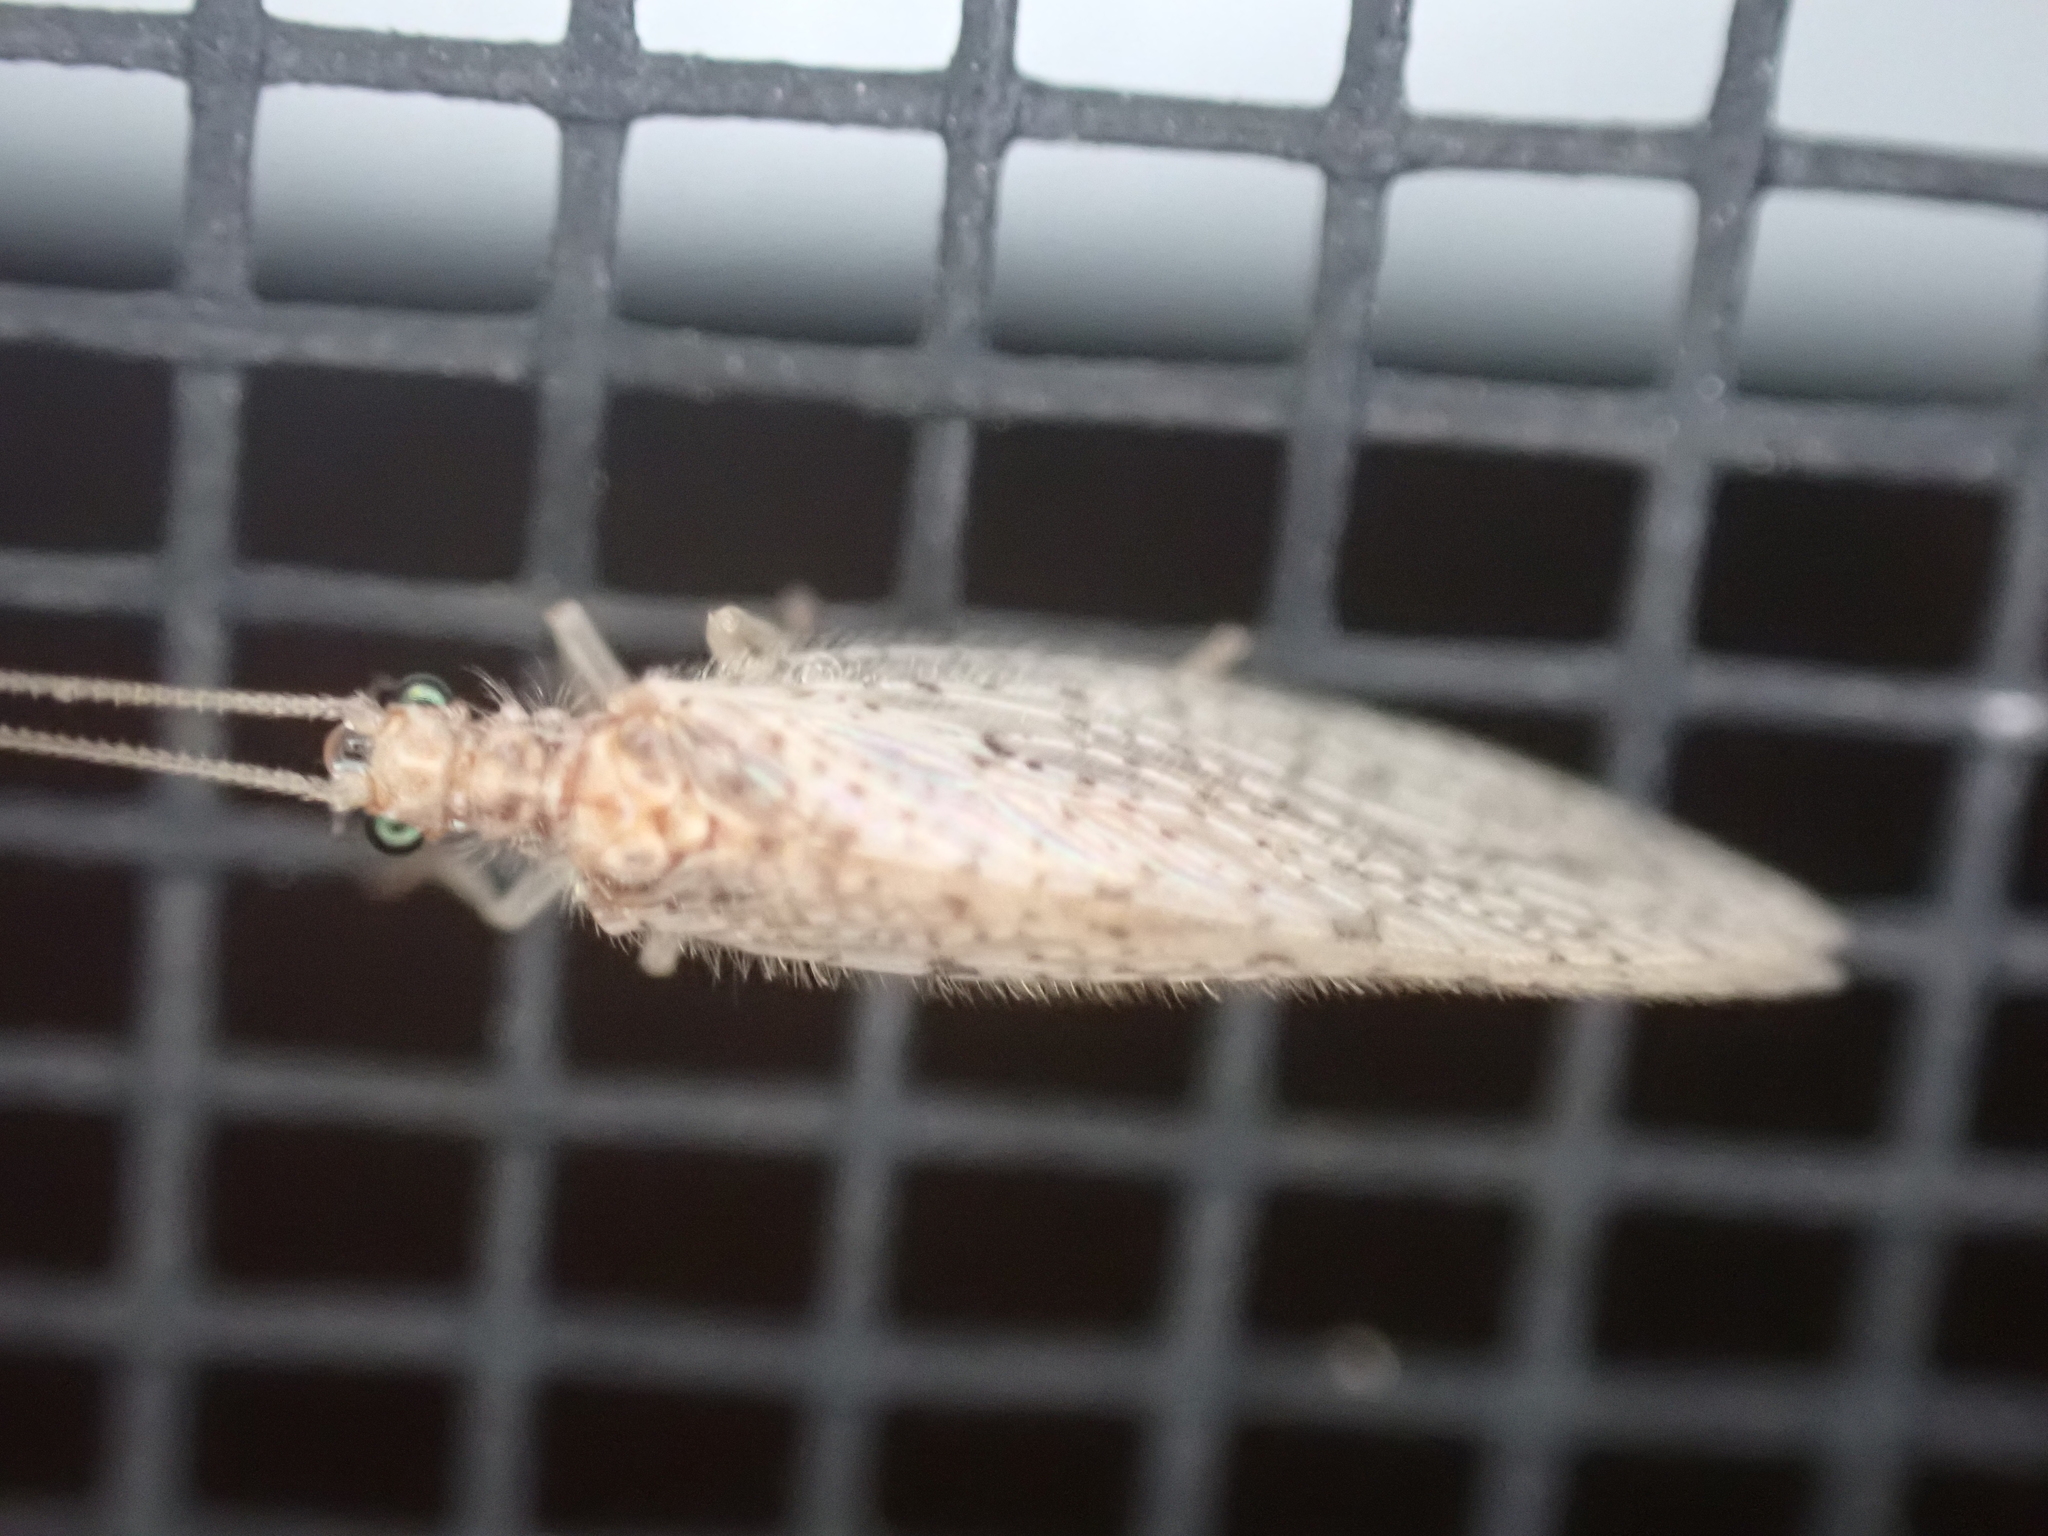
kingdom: Animalia
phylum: Arthropoda
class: Insecta
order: Neuroptera
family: Hemerobiidae
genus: Micromus
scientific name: Micromus subanticus
